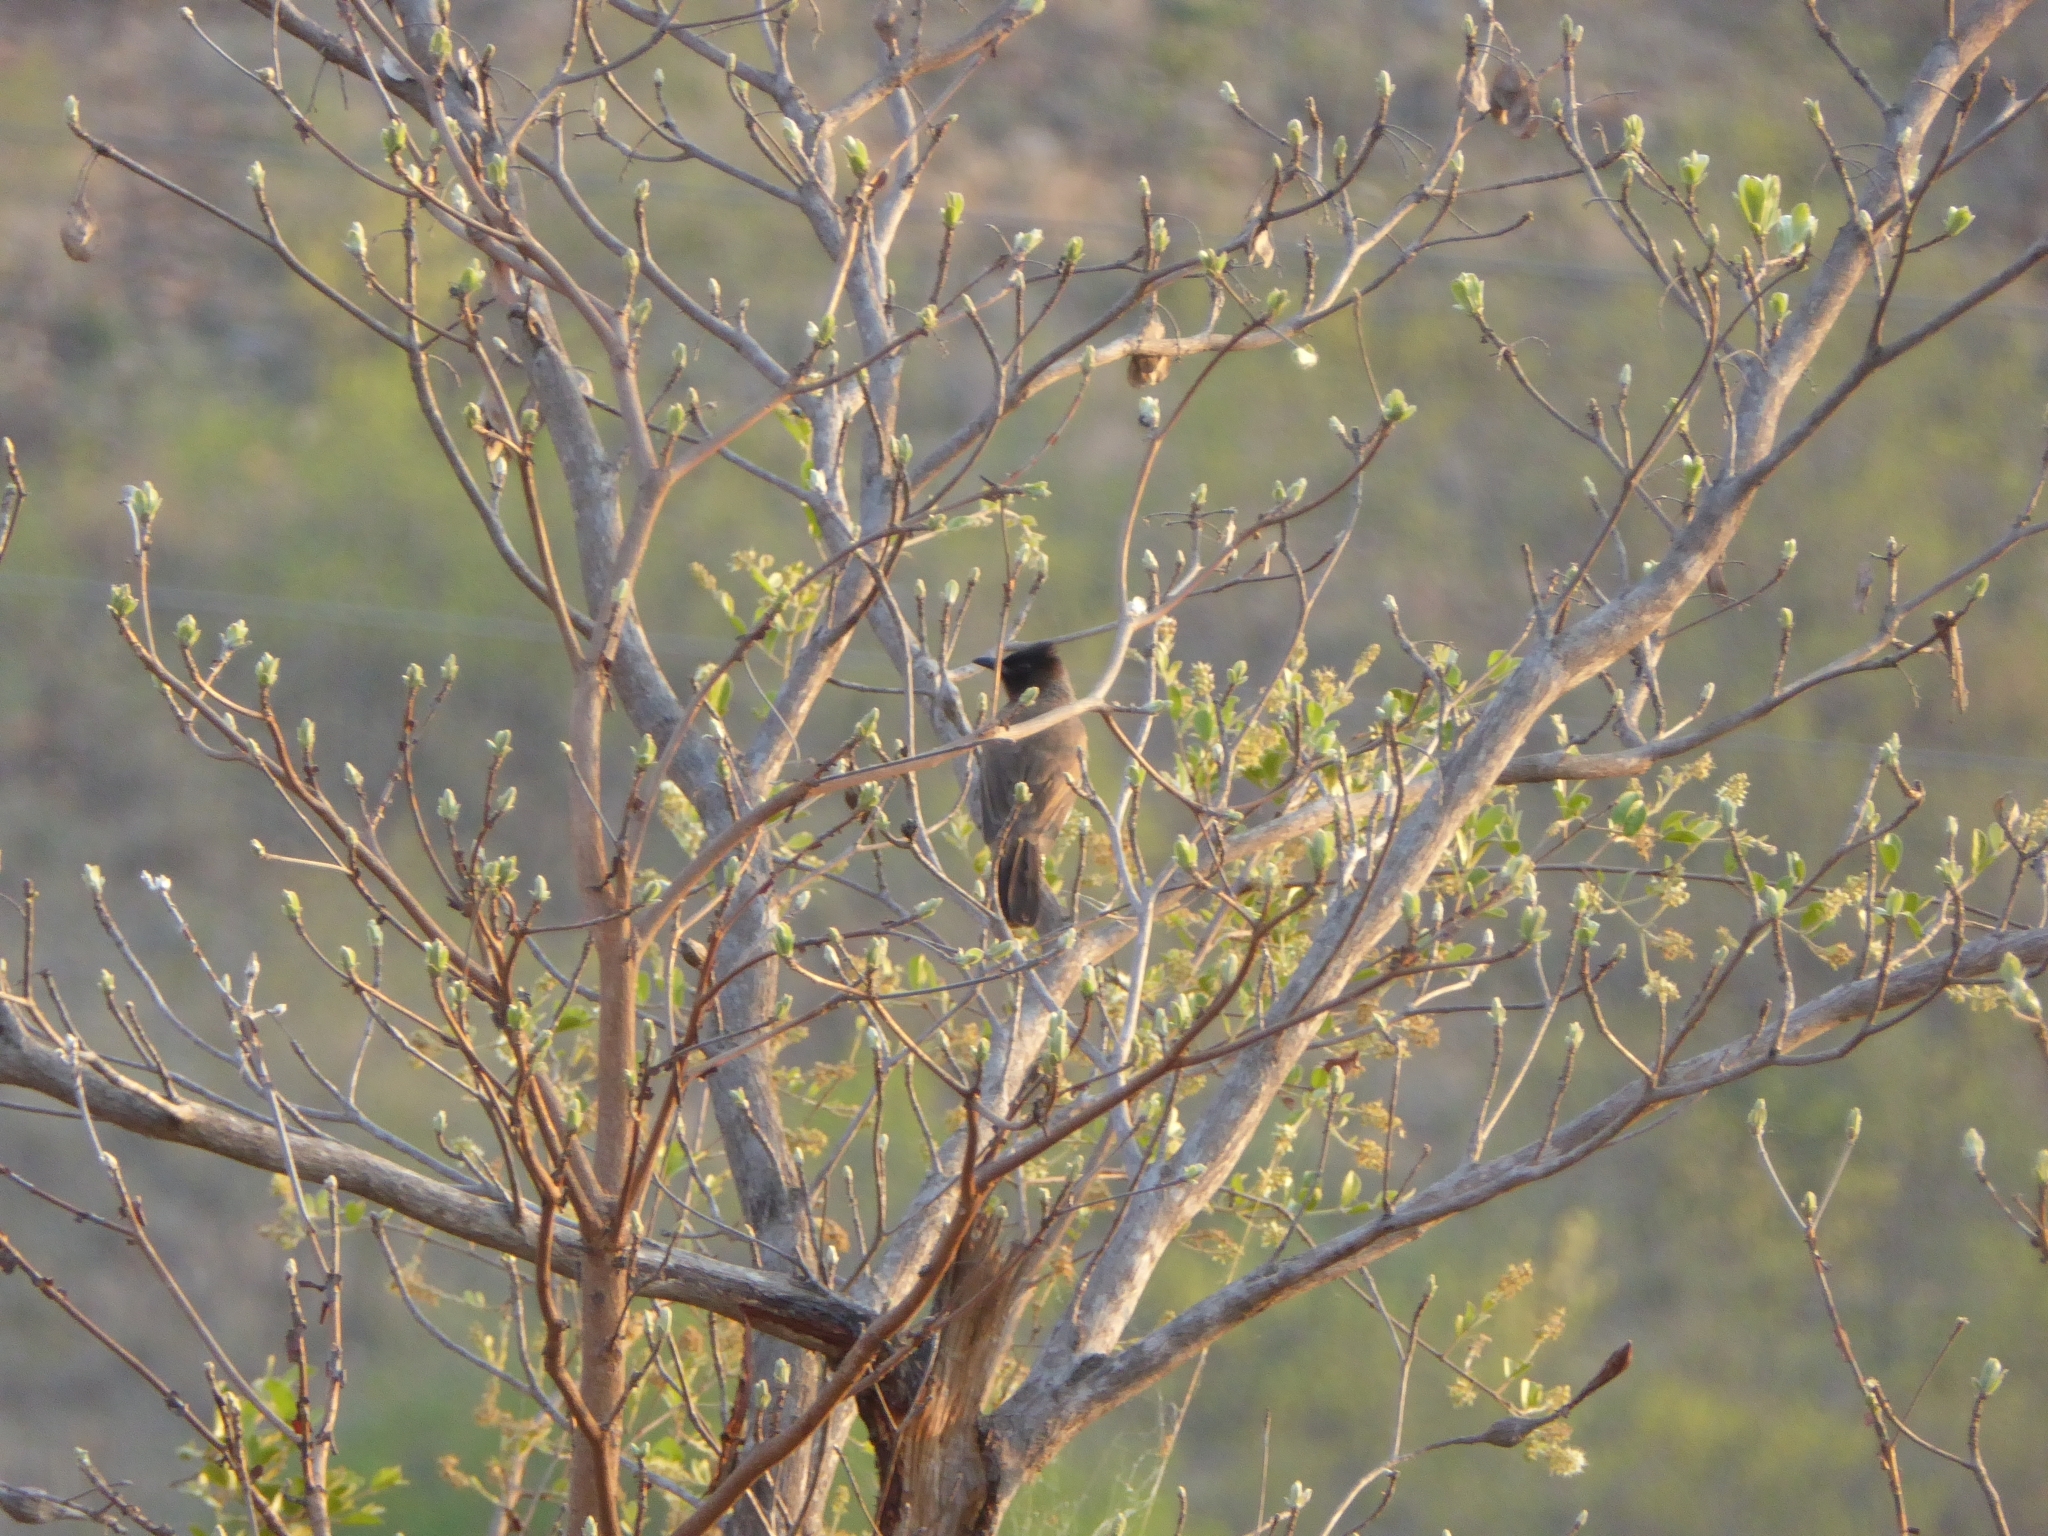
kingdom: Animalia
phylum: Chordata
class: Aves
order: Passeriformes
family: Pycnonotidae
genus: Pycnonotus
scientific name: Pycnonotus barbatus
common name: Common bulbul
